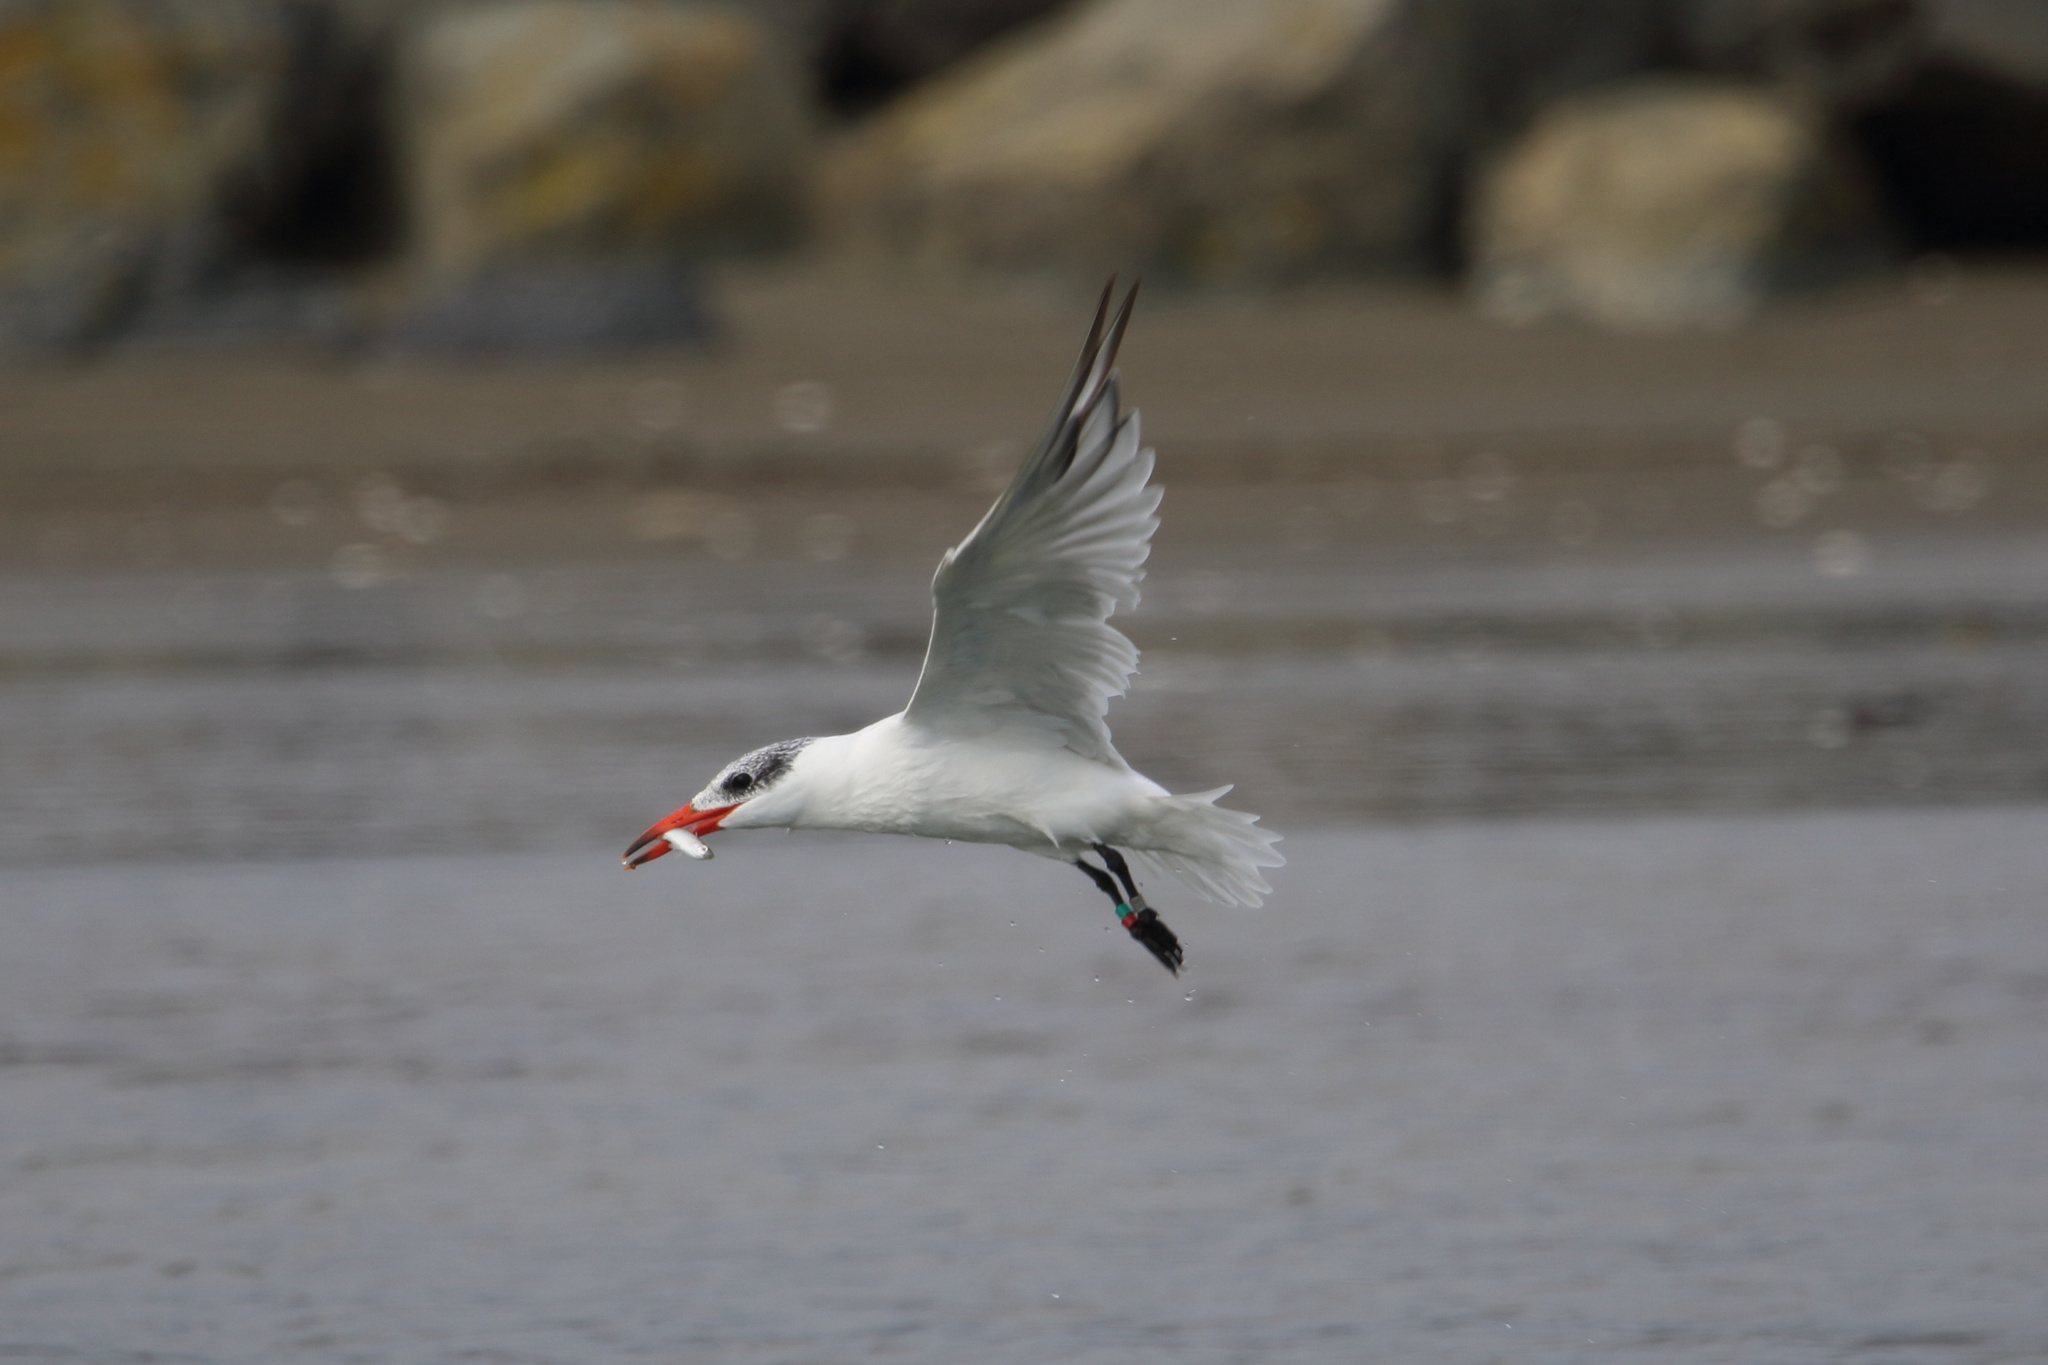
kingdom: Animalia
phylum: Chordata
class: Aves
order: Charadriiformes
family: Laridae
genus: Hydroprogne
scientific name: Hydroprogne caspia
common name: Caspian tern
